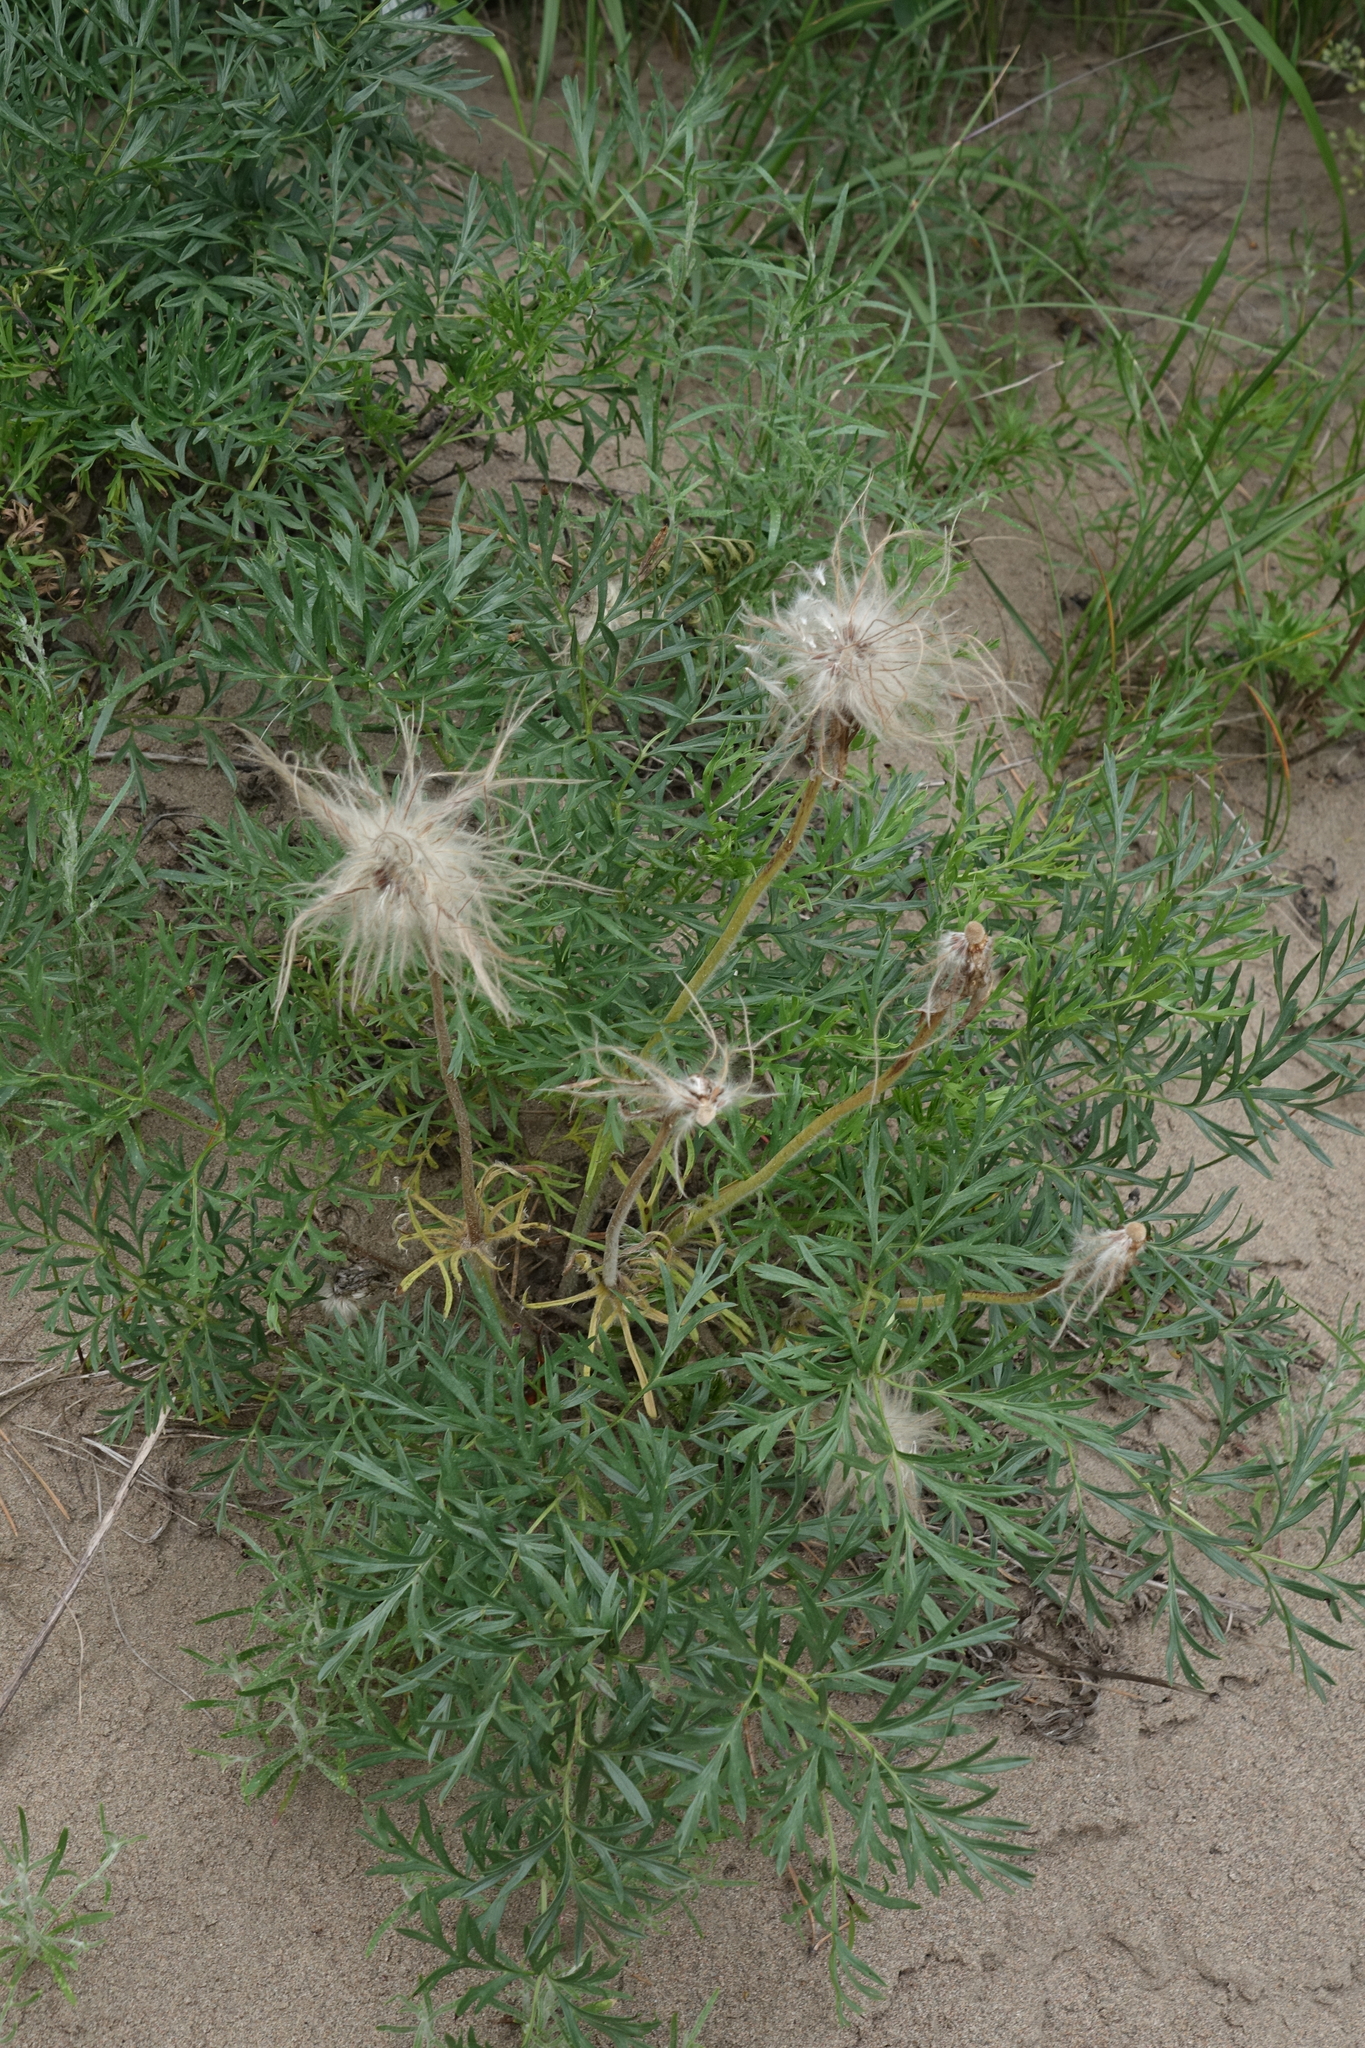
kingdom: Plantae
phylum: Tracheophyta
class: Magnoliopsida
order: Ranunculales
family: Ranunculaceae
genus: Pulsatilla
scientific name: Pulsatilla turczaninovii
